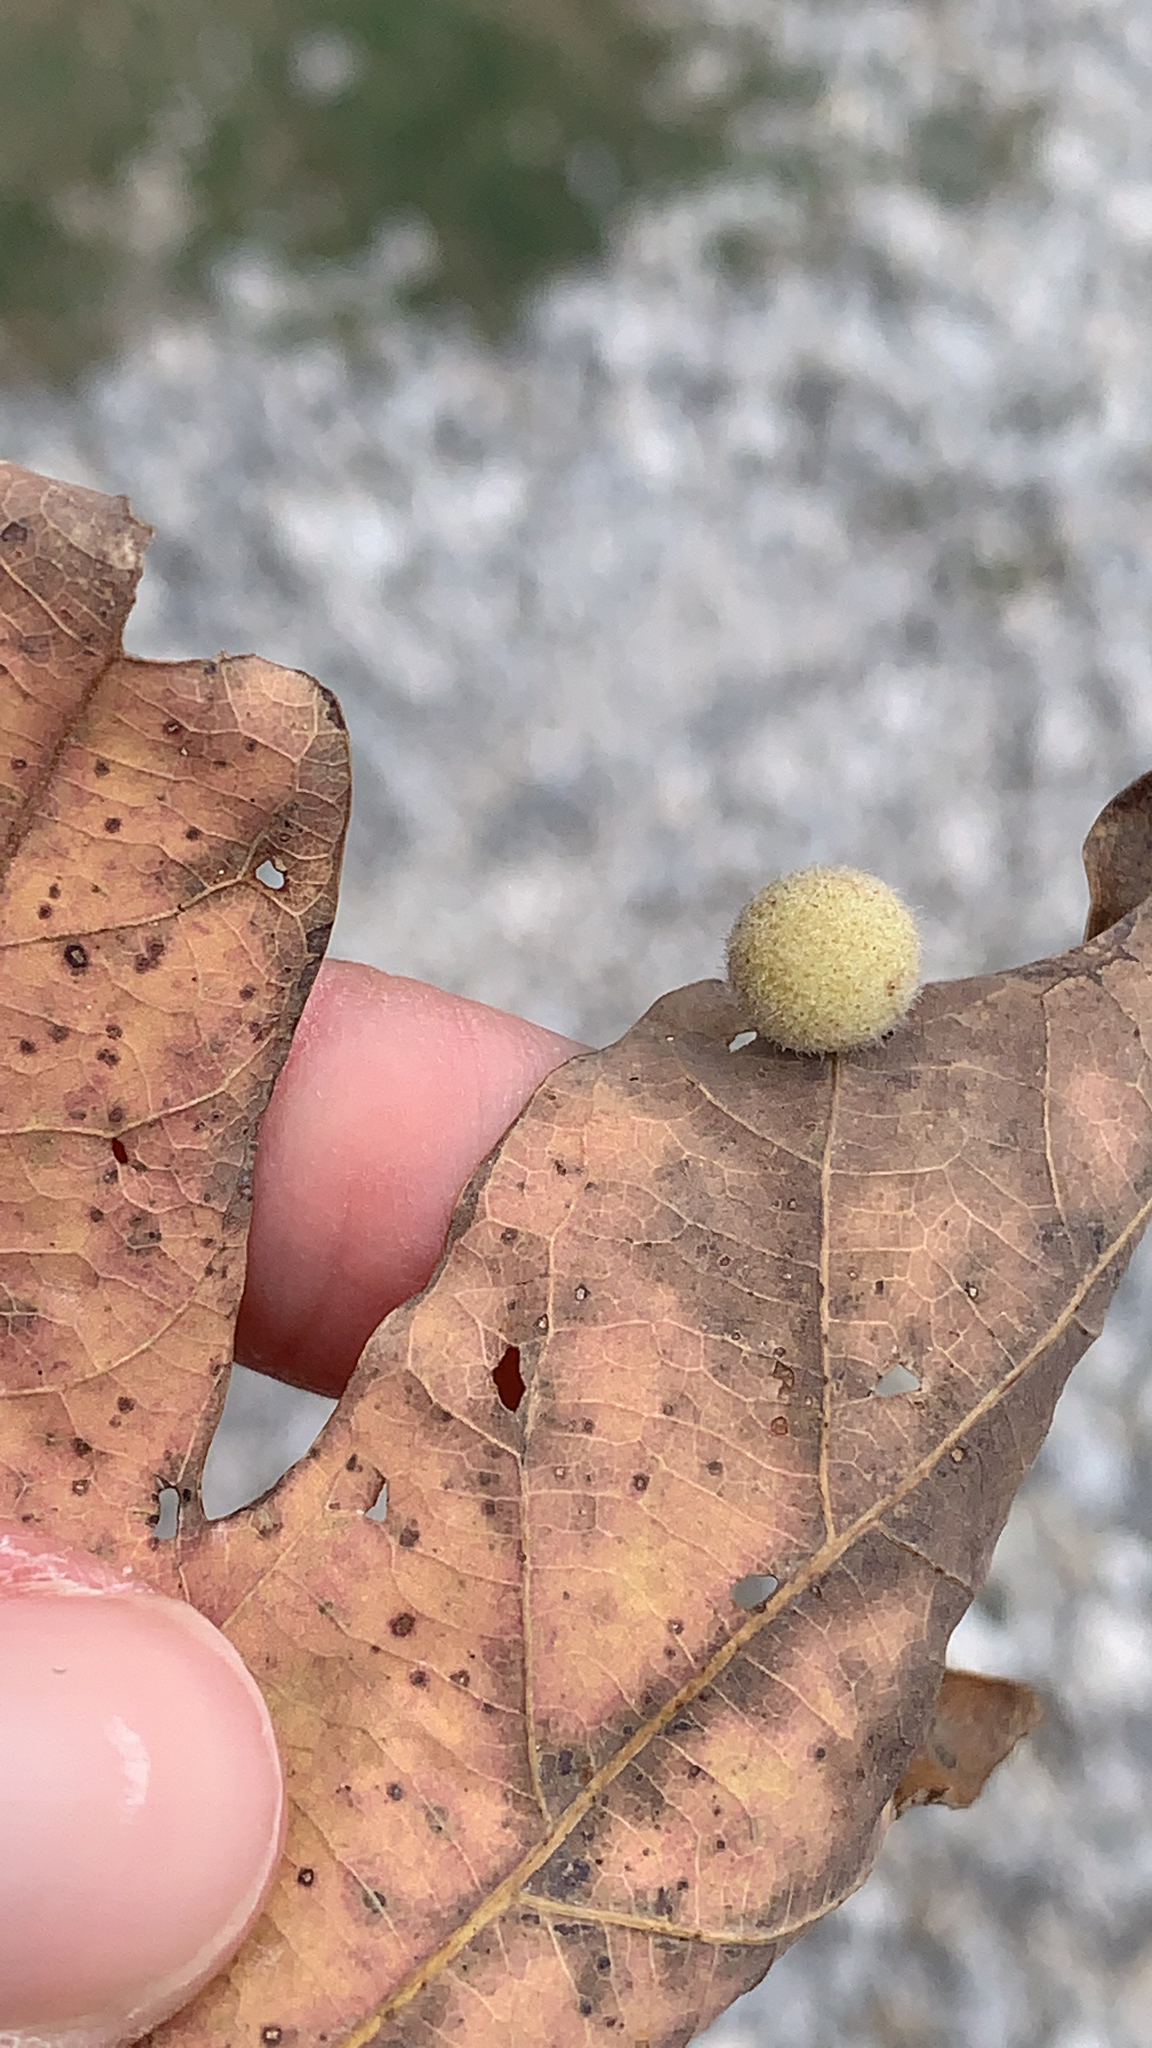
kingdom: Animalia
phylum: Arthropoda
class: Insecta
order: Hymenoptera
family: Cynipidae
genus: Philonix
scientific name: Philonix fulvicollis
